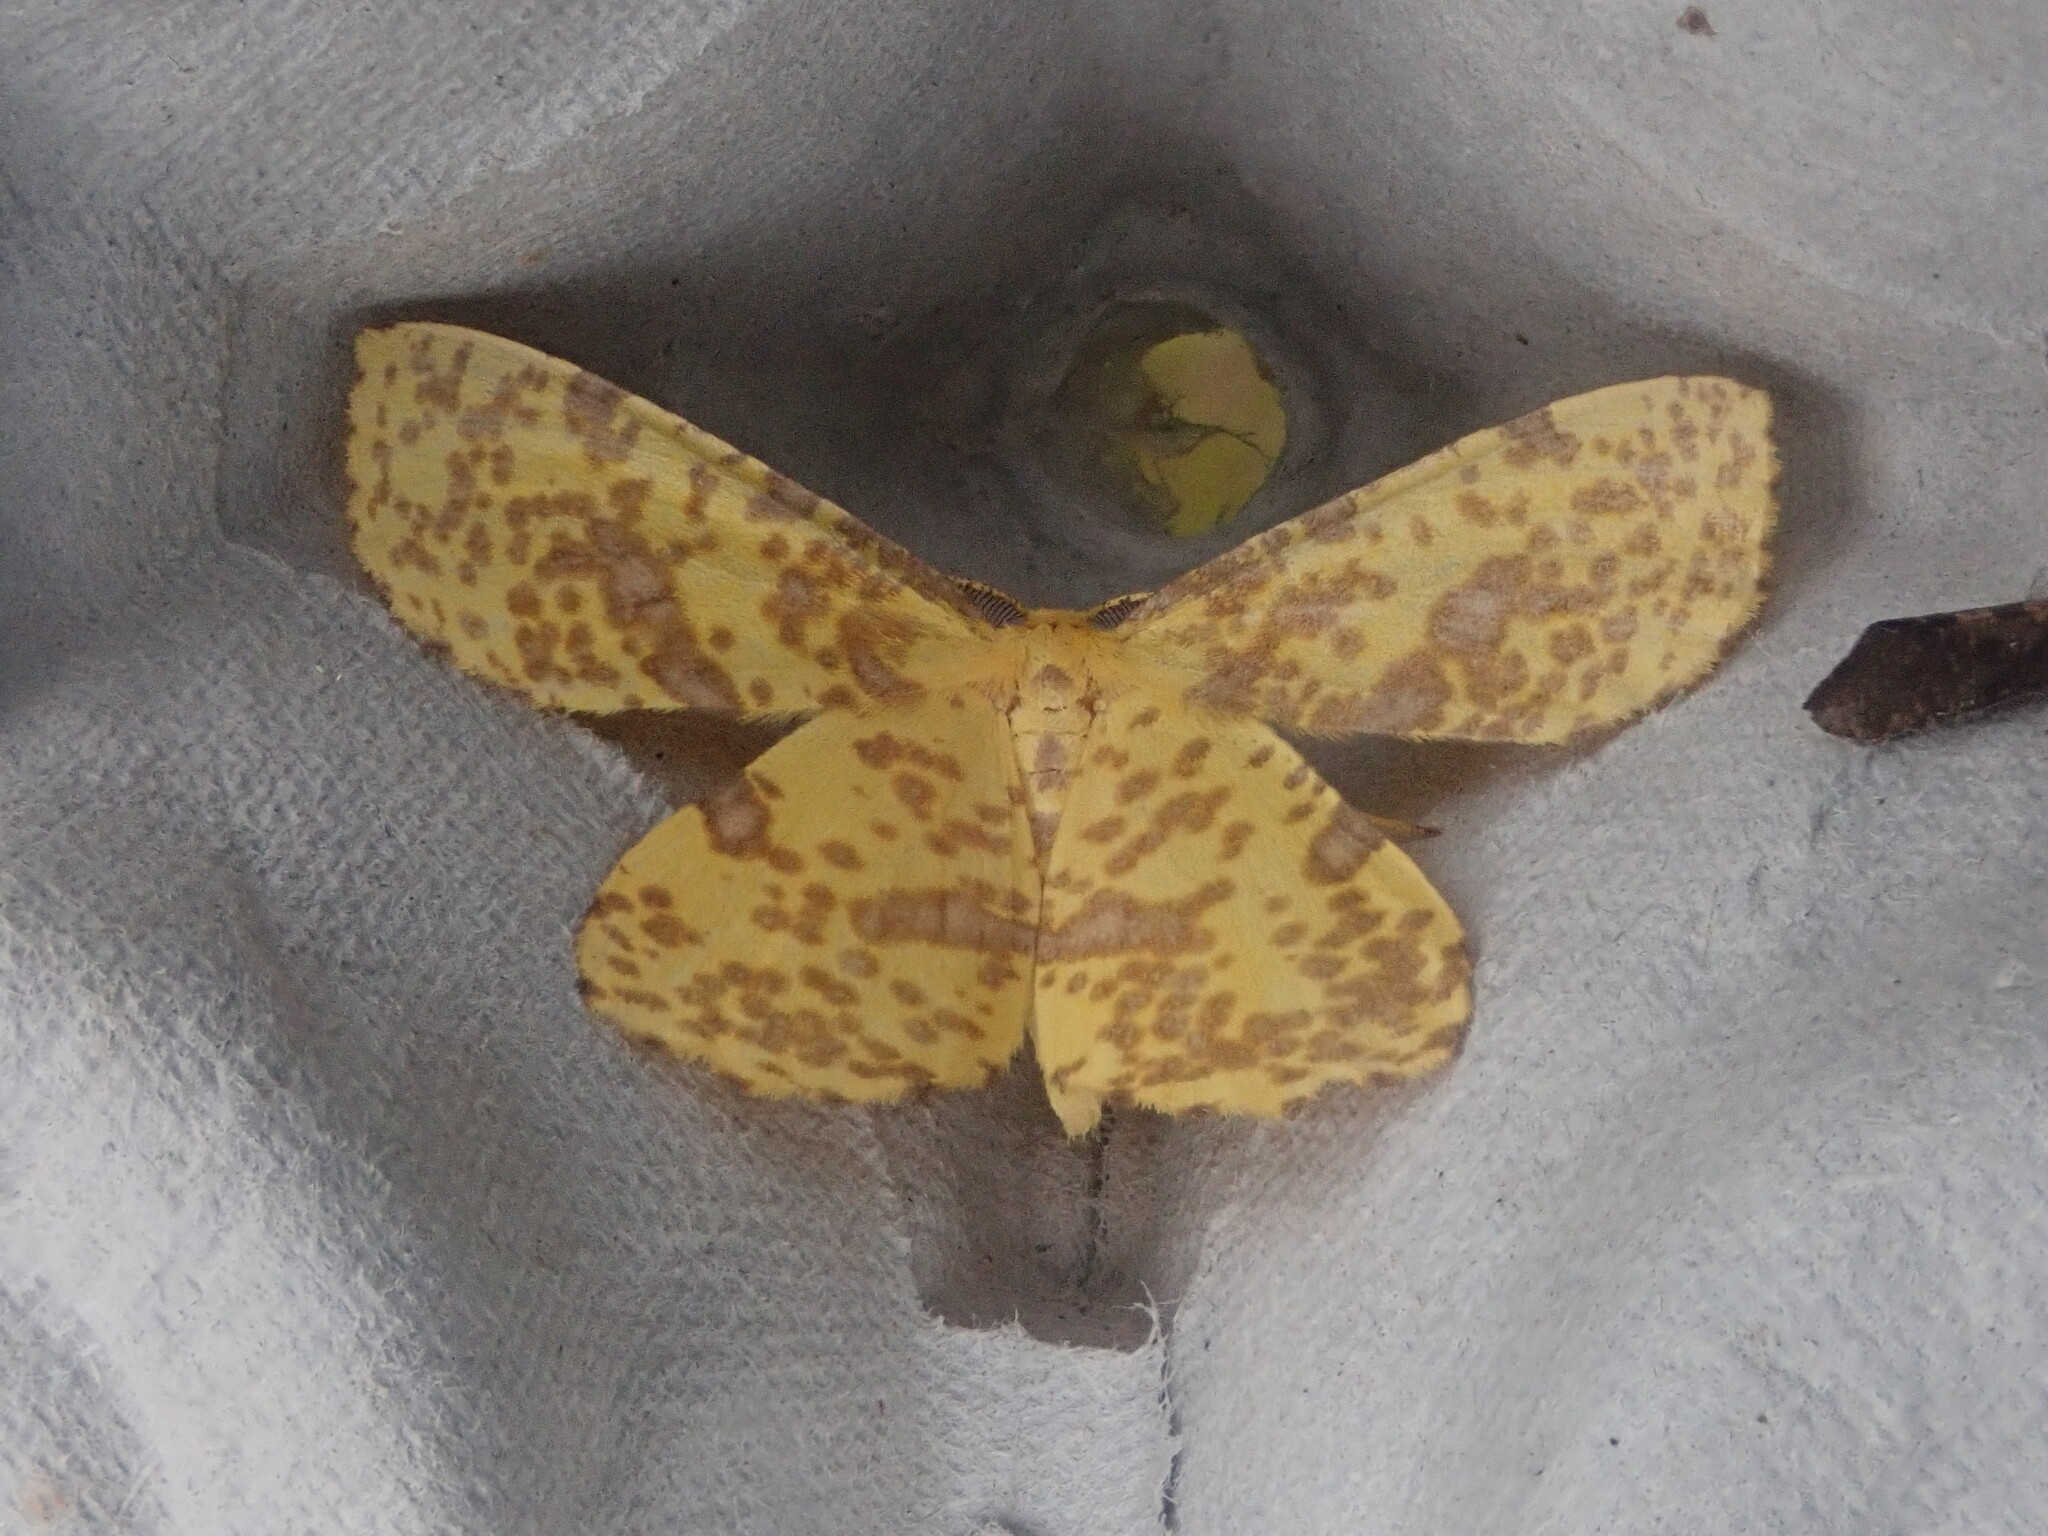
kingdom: Animalia
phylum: Arthropoda
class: Insecta
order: Lepidoptera
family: Geometridae
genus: Xanthotype
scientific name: Xanthotype
